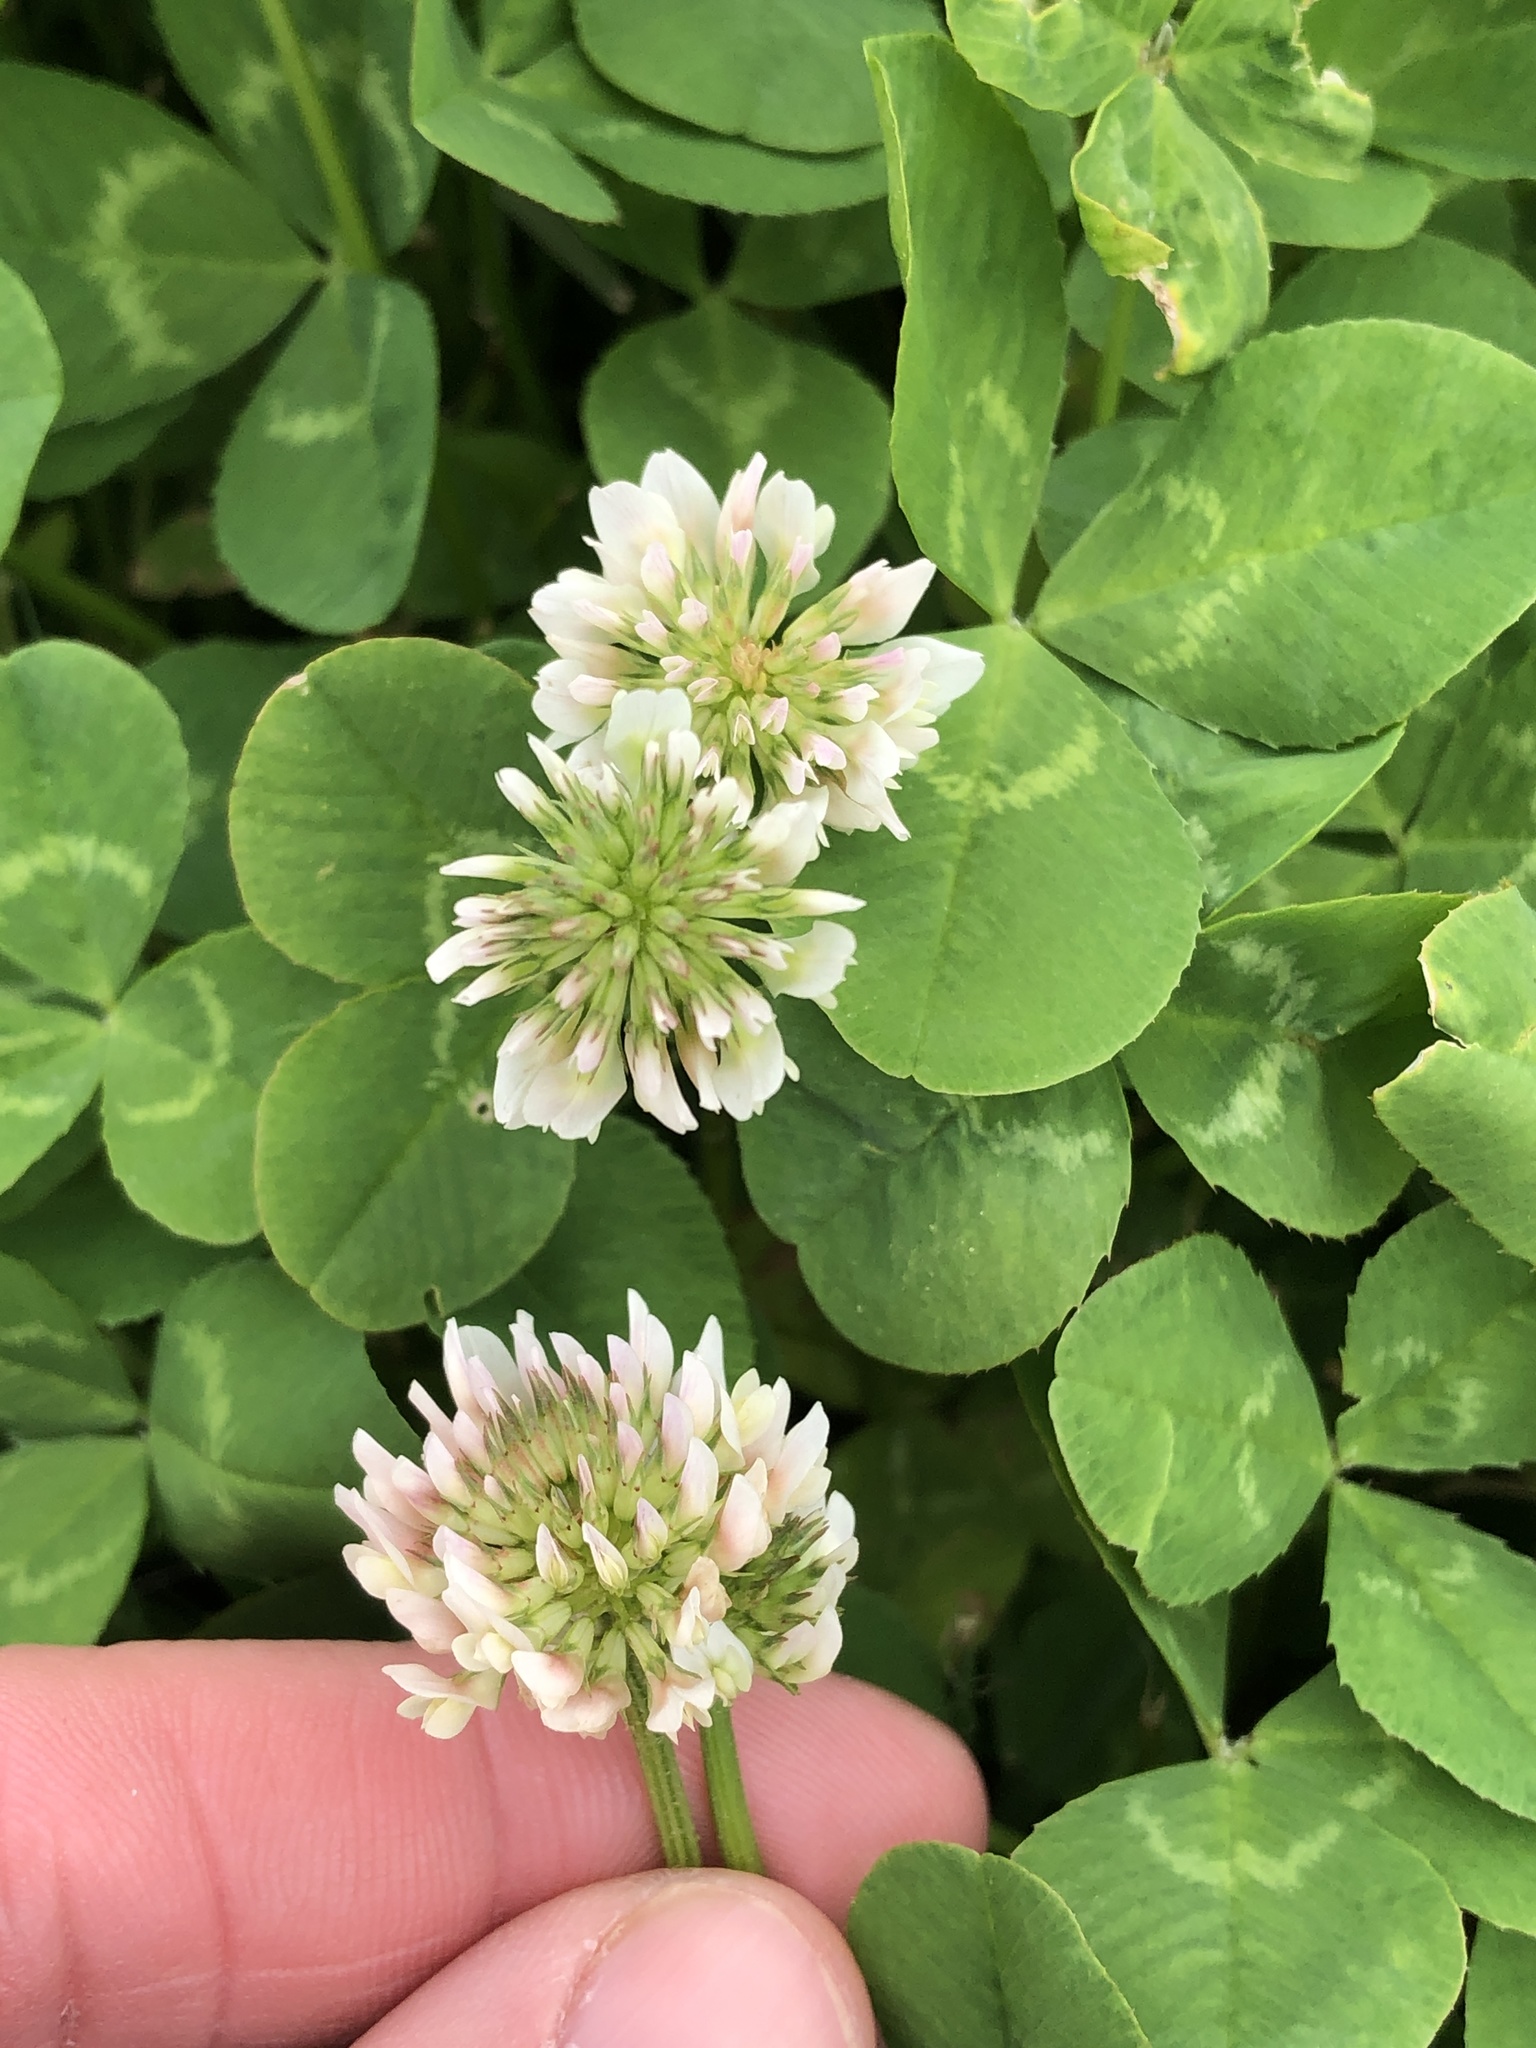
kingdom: Plantae
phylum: Tracheophyta
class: Magnoliopsida
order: Fabales
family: Fabaceae
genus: Trifolium
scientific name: Trifolium repens
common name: White clover
